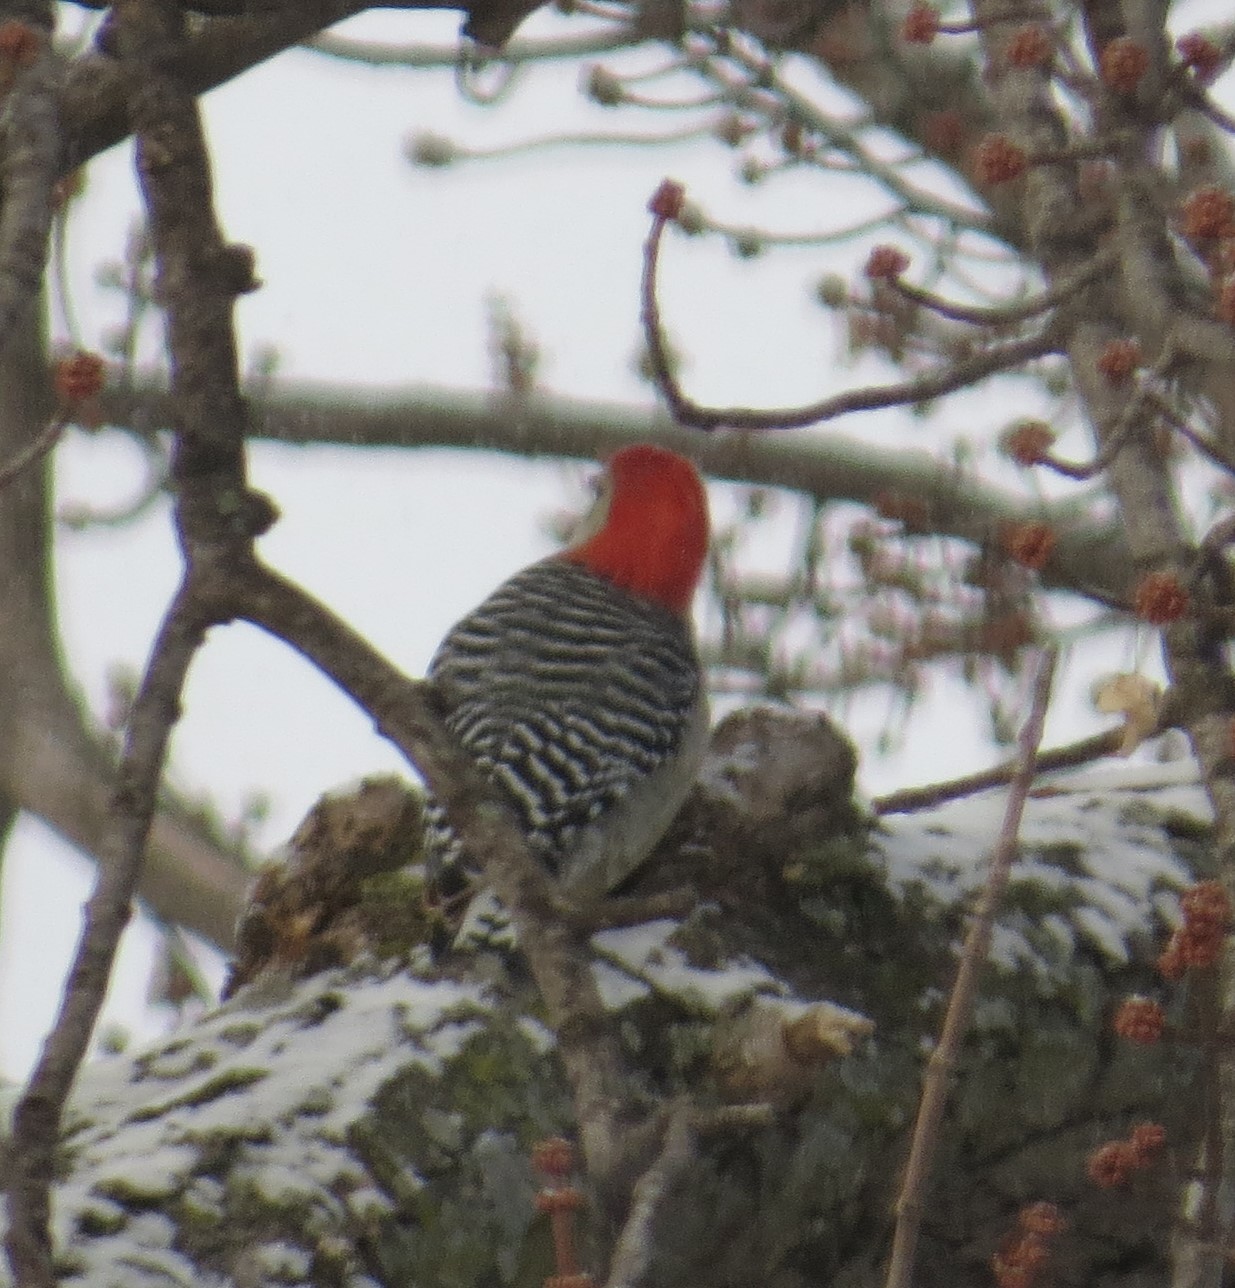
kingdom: Animalia
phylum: Chordata
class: Aves
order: Piciformes
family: Picidae
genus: Melanerpes
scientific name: Melanerpes carolinus
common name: Red-bellied woodpecker
